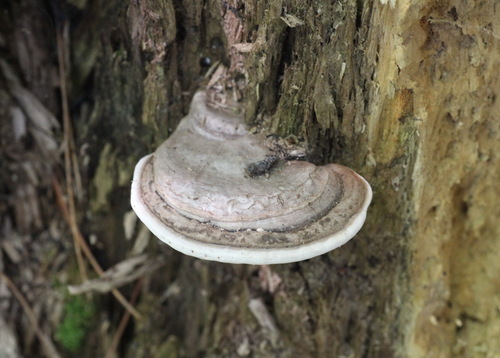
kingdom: Fungi
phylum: Basidiomycota
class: Agaricomycetes
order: Polyporales
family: Polyporaceae
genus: Ganoderma
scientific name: Ganoderma applanatum
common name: Artist's bracket
